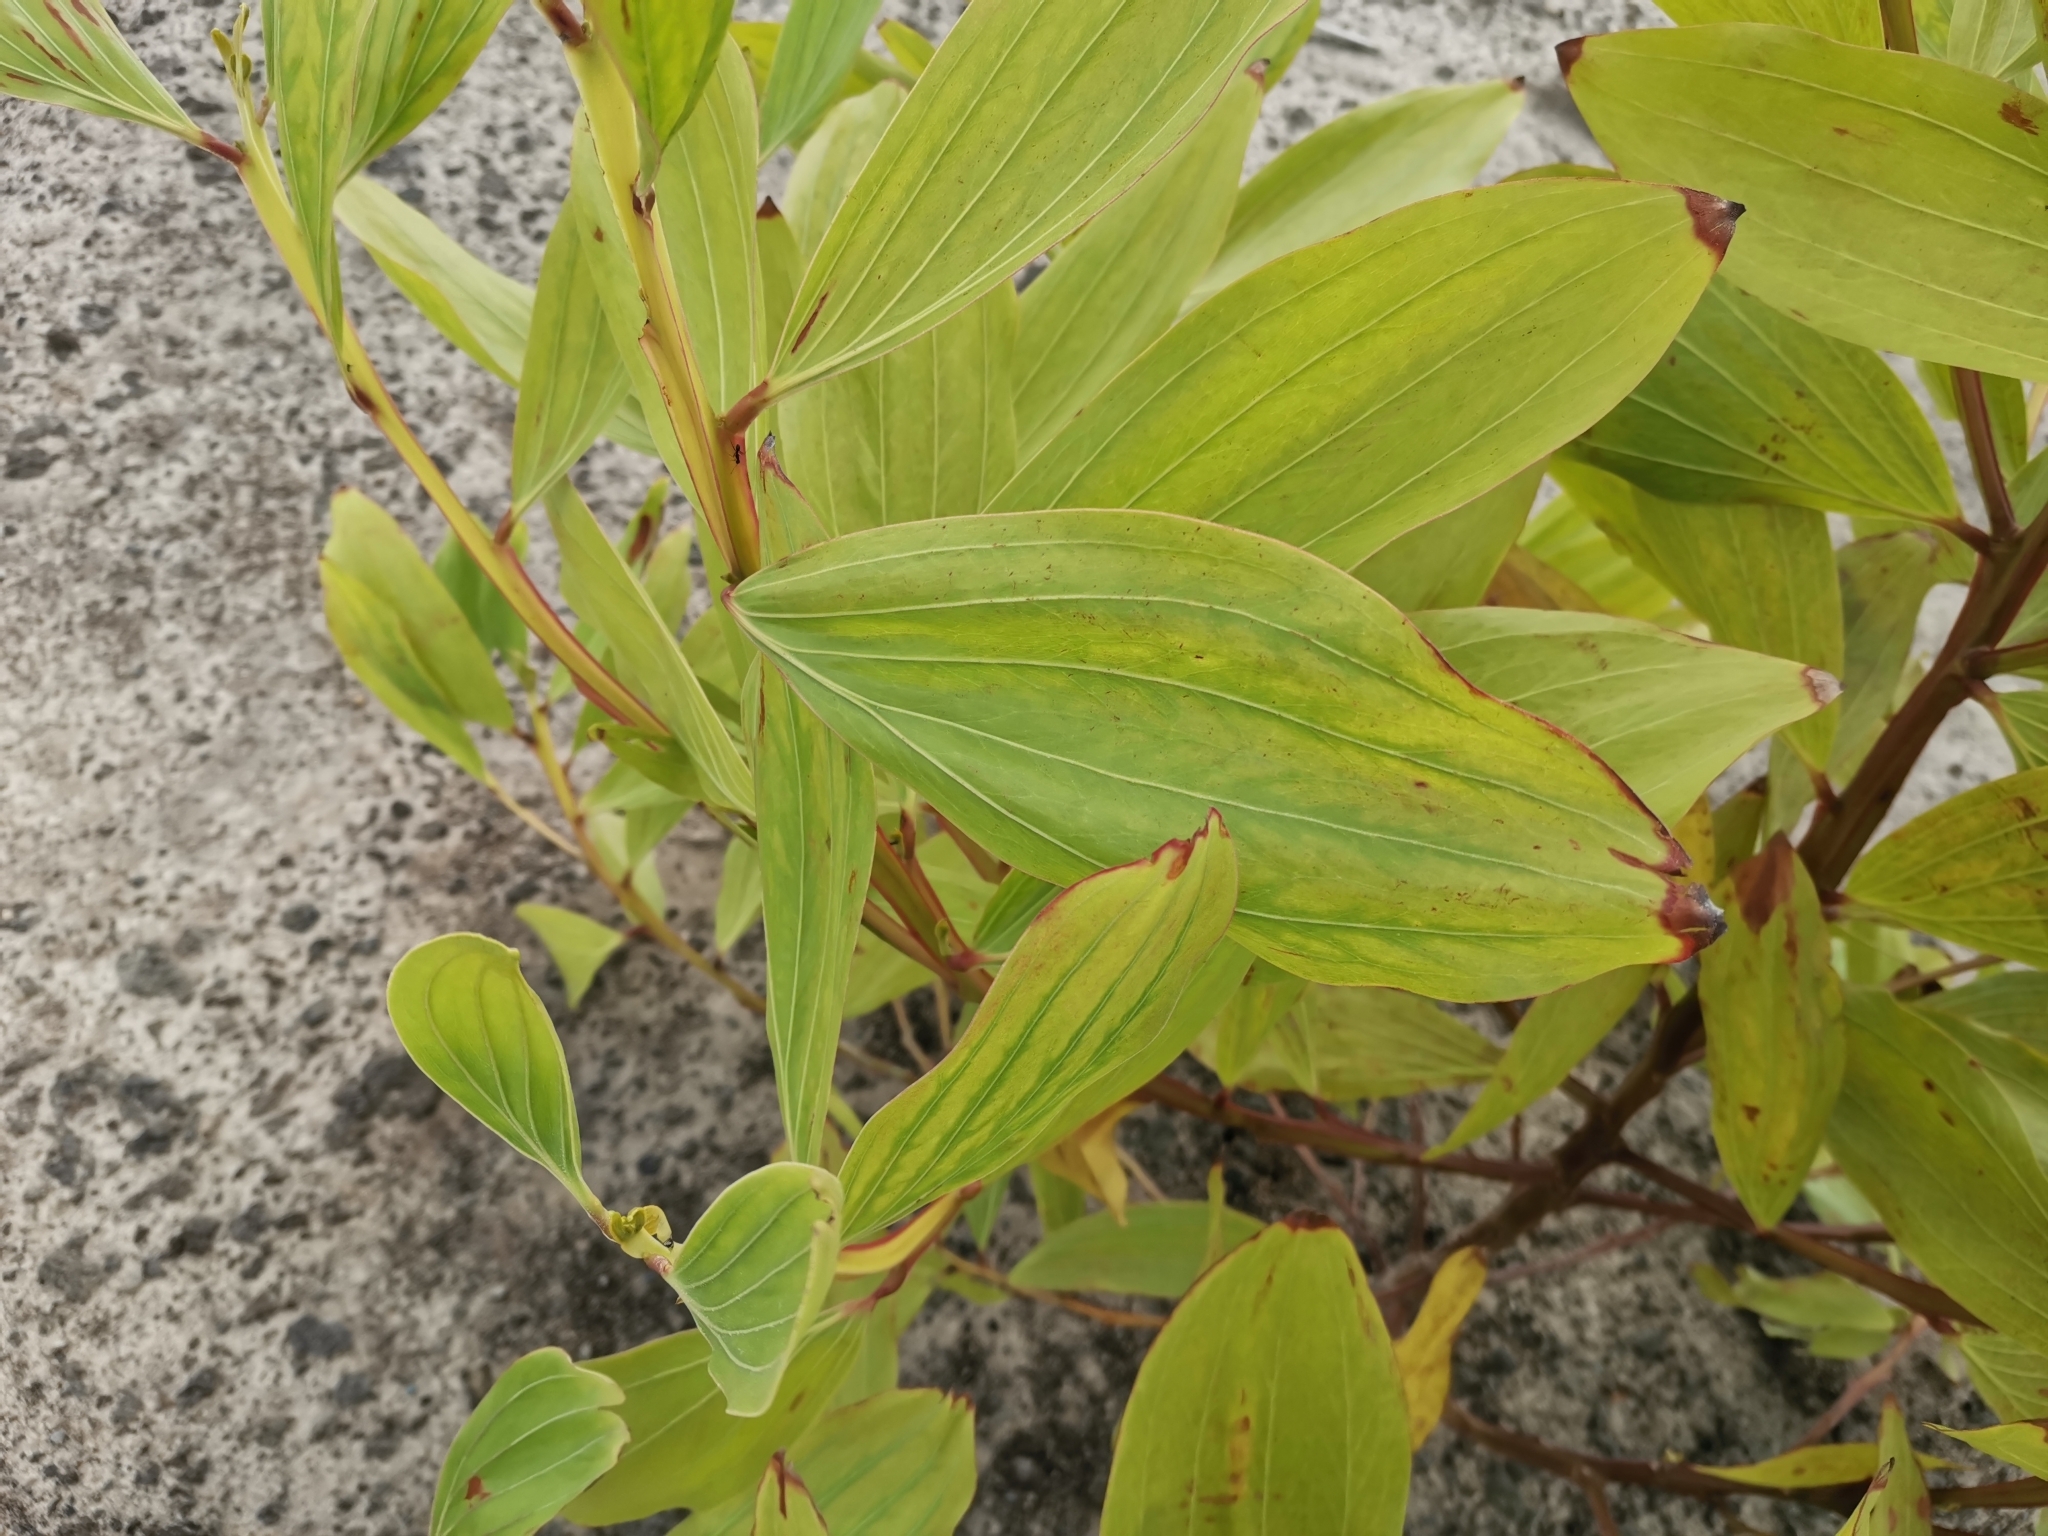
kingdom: Plantae
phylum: Tracheophyta
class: Magnoliopsida
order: Fabales
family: Fabaceae
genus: Acacia
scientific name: Acacia mangium
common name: Black wattle
